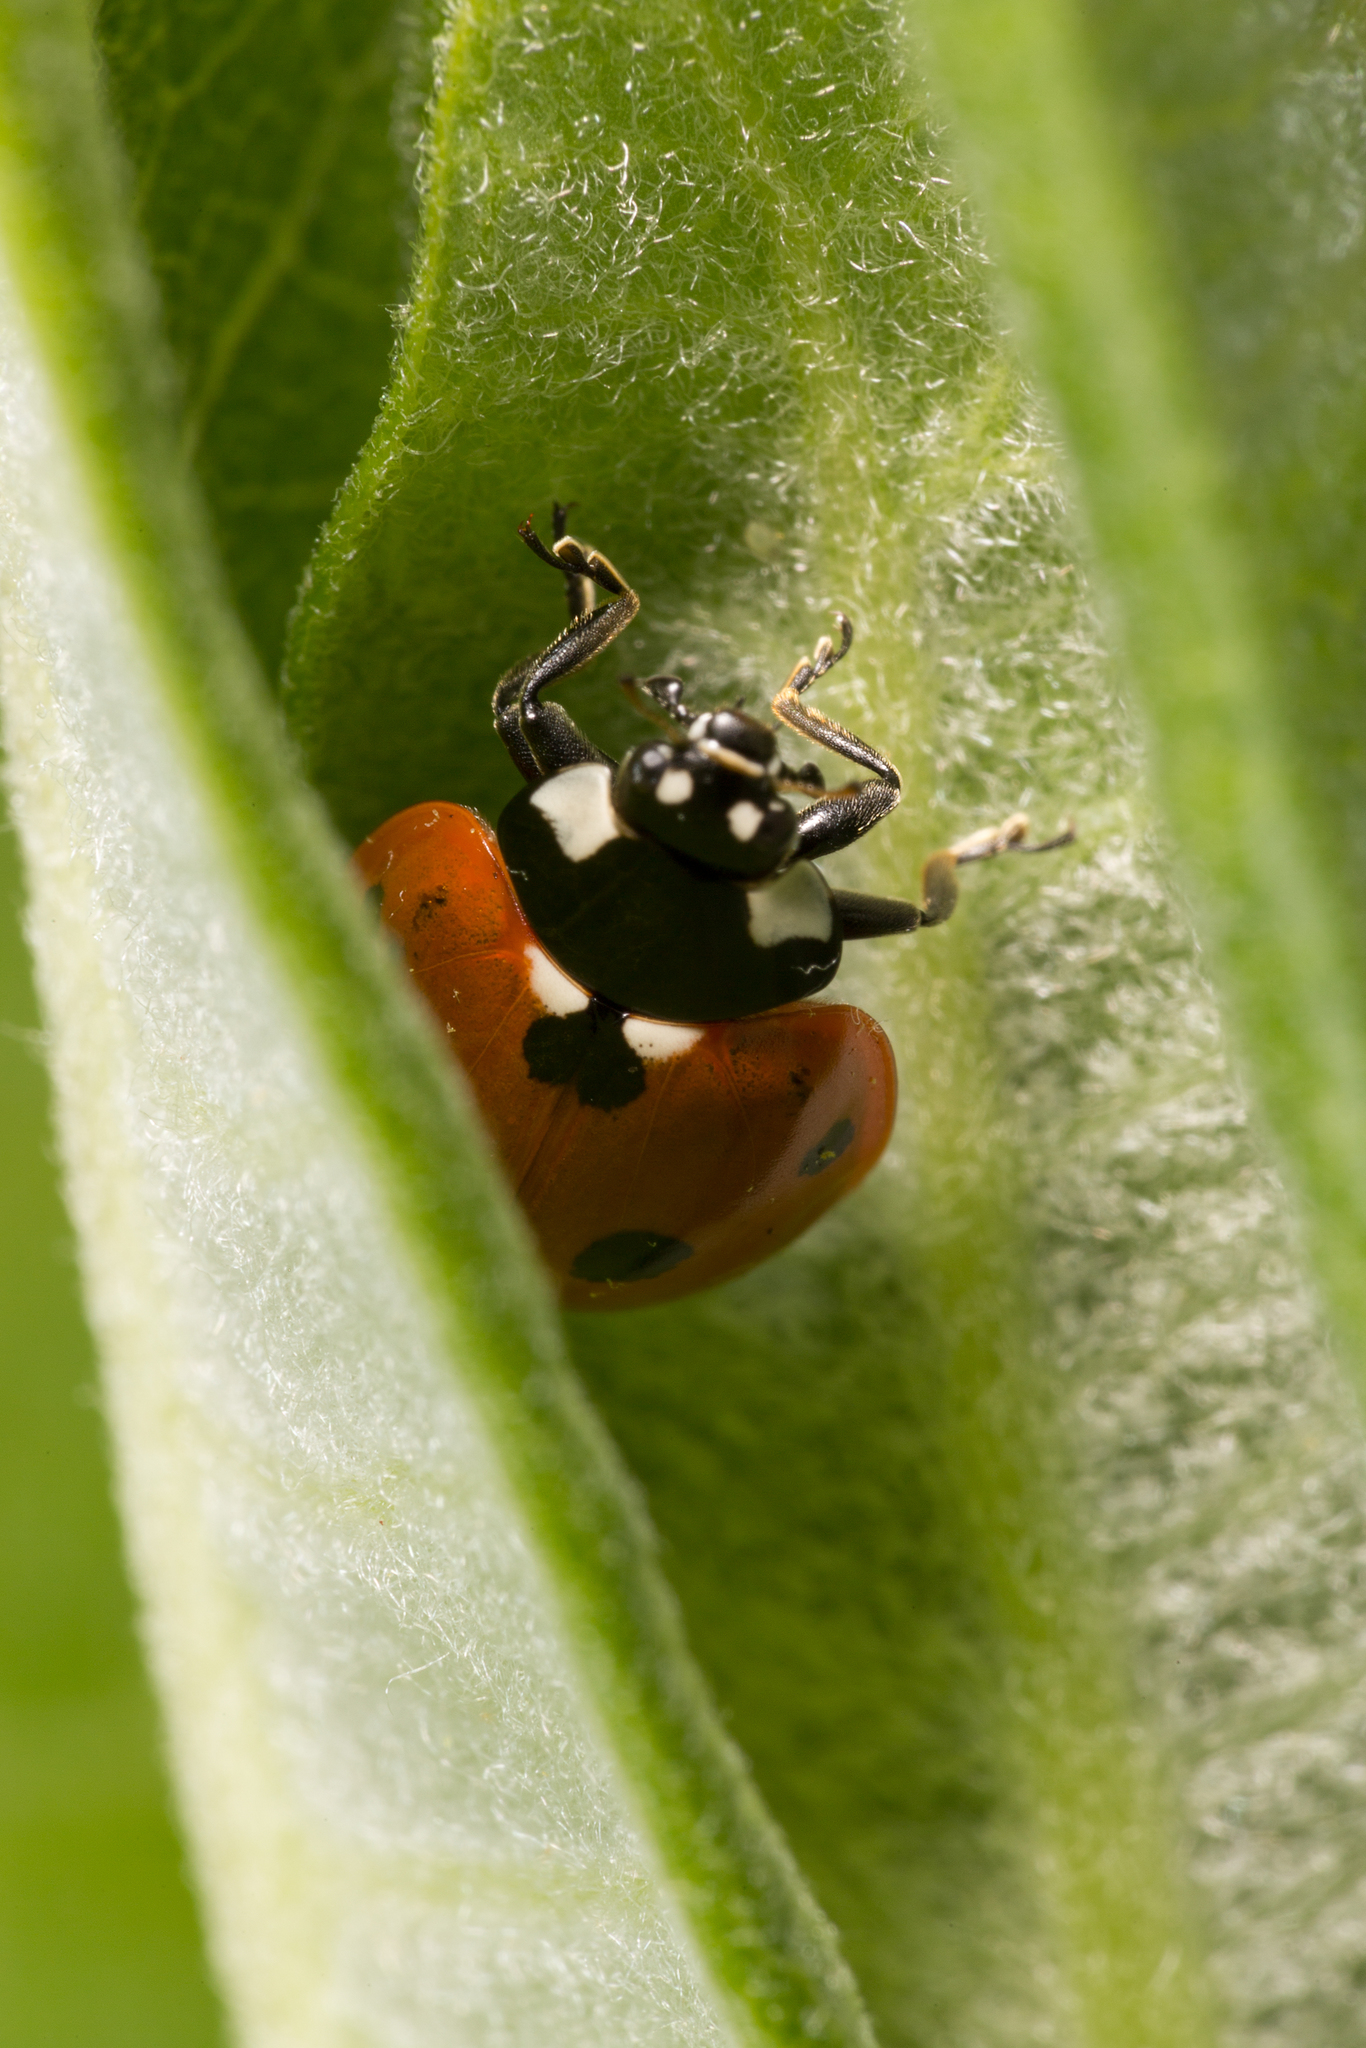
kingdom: Animalia
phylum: Arthropoda
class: Insecta
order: Coleoptera
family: Coccinellidae
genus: Coccinella
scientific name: Coccinella septempunctata
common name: Sevenspotted lady beetle
